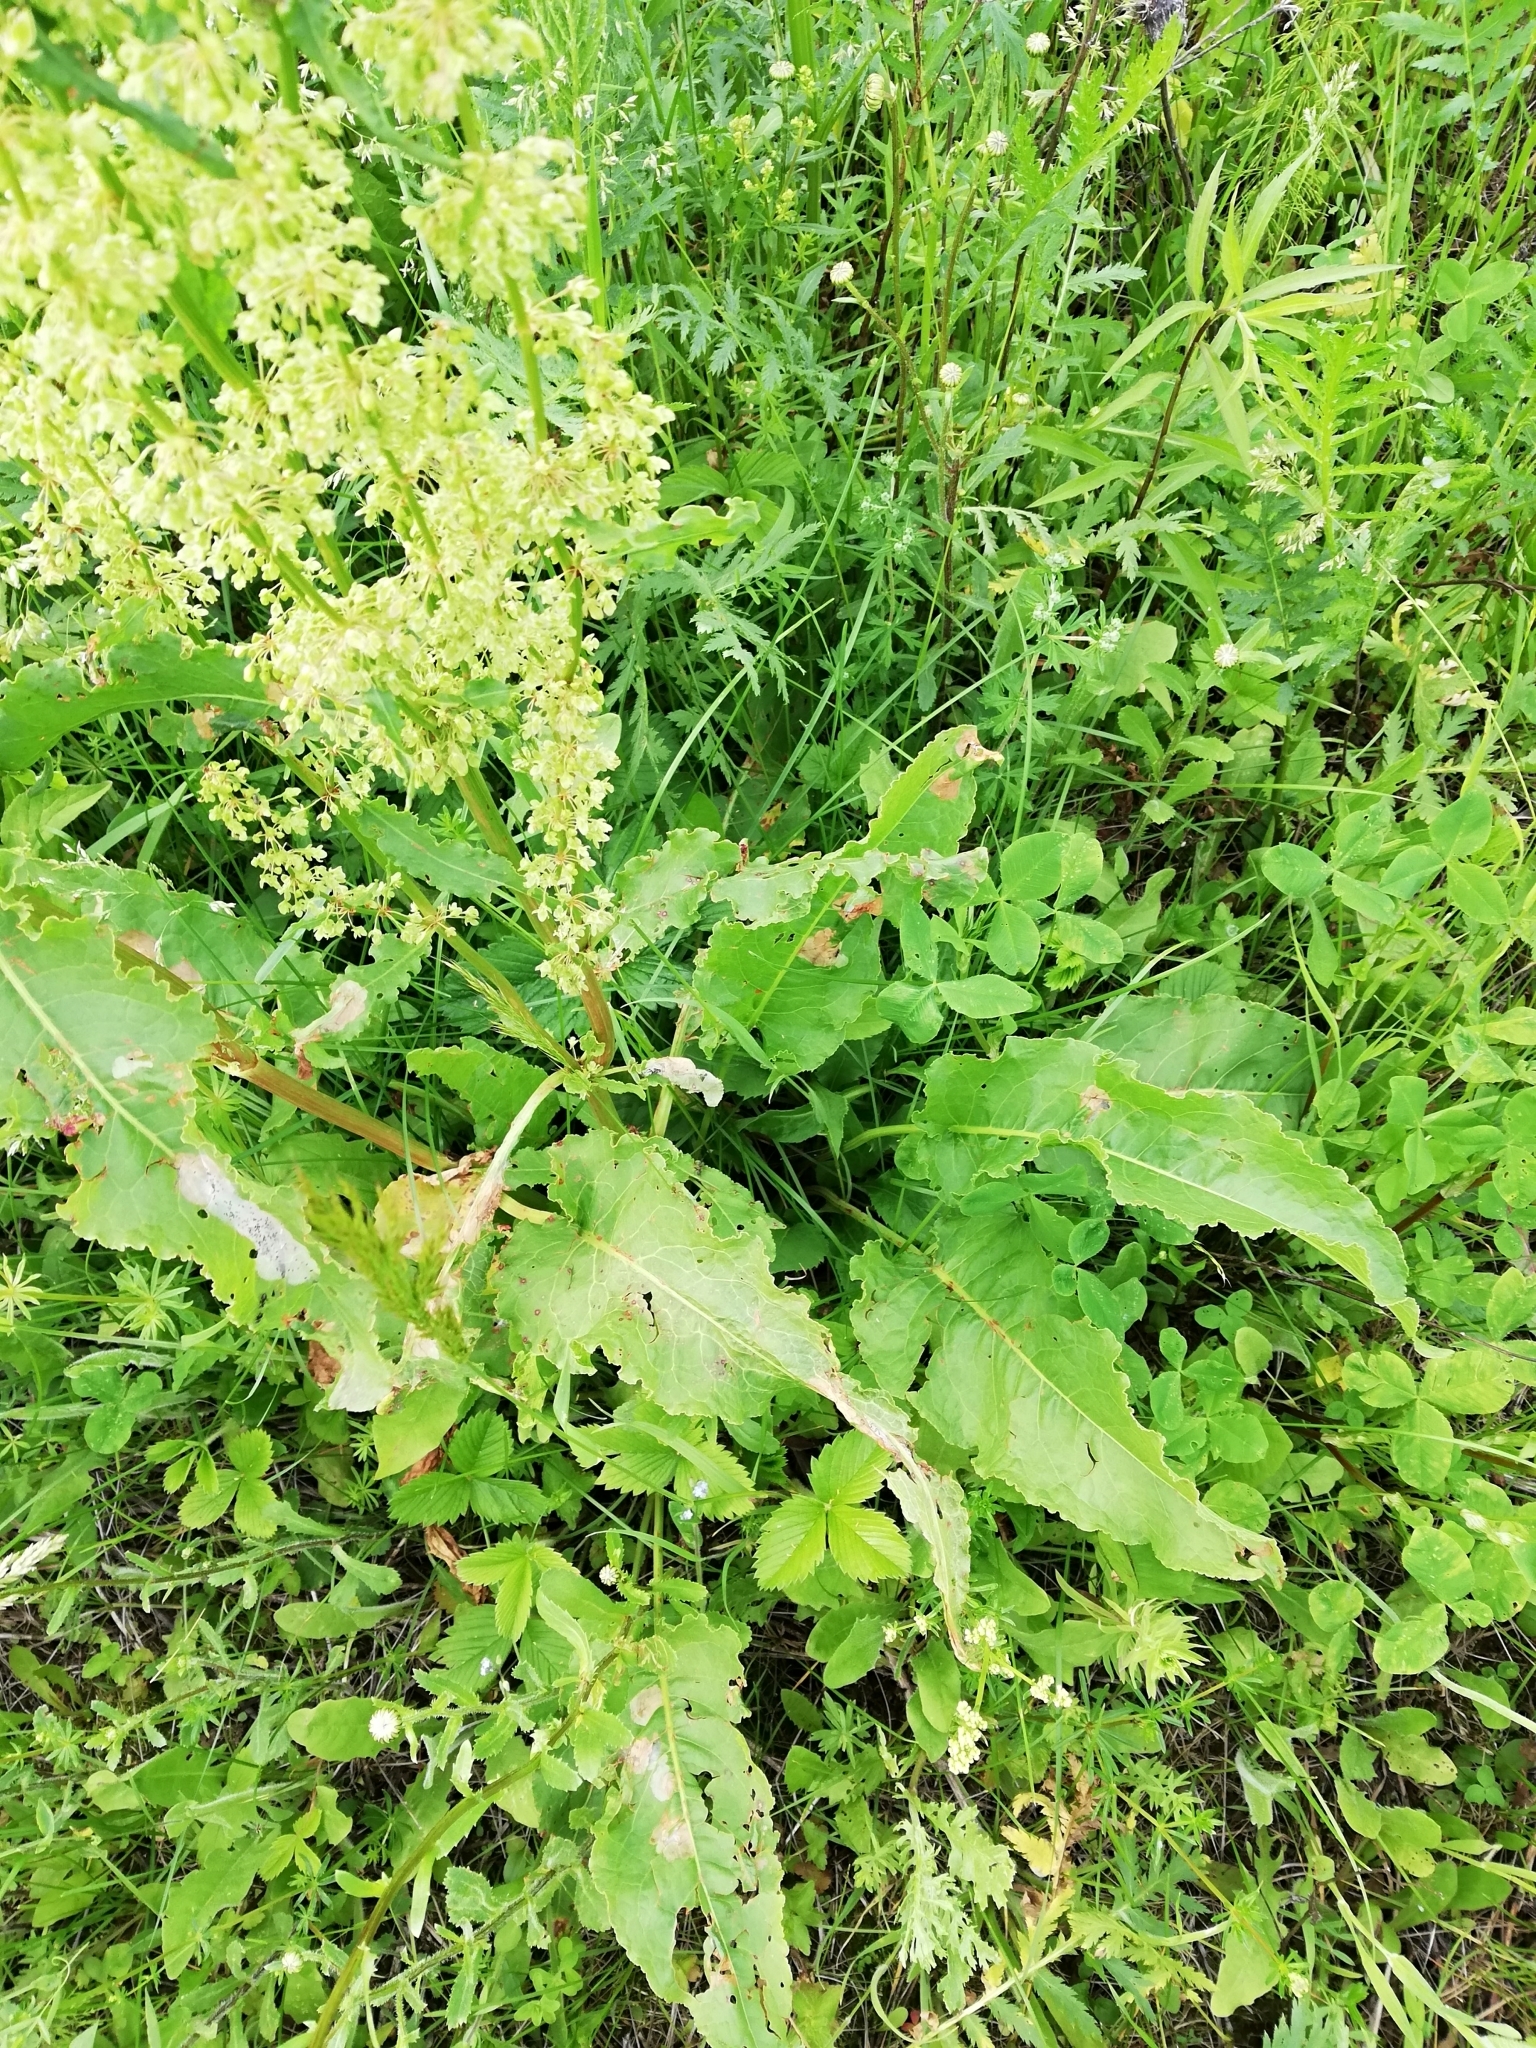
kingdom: Plantae
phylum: Tracheophyta
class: Magnoliopsida
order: Caryophyllales
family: Polygonaceae
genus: Rumex
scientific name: Rumex confertus
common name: Russian dock
